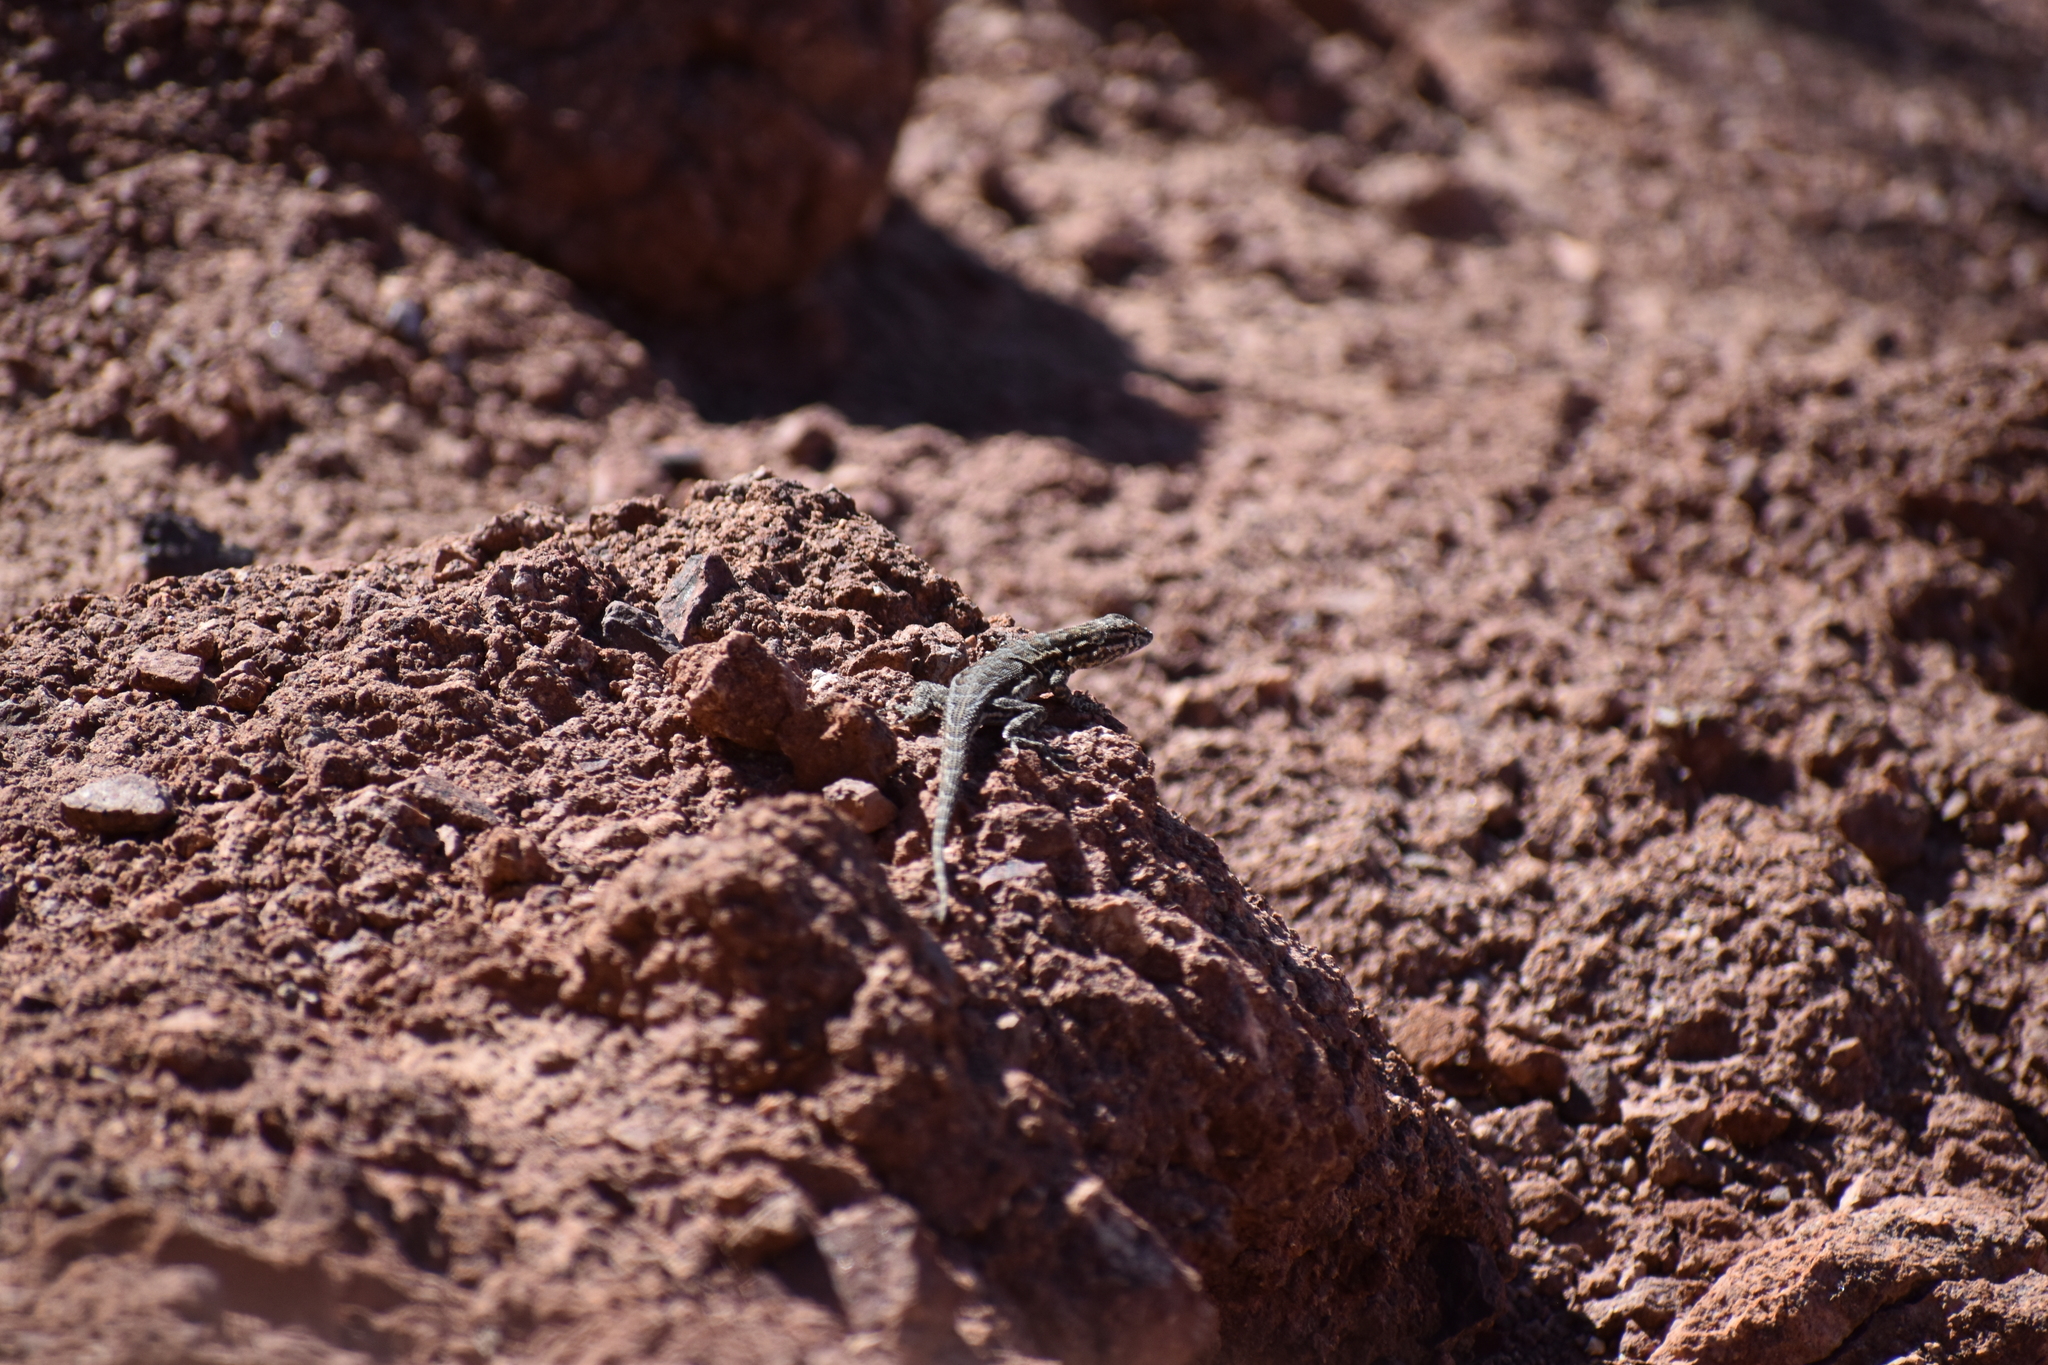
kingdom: Animalia
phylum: Chordata
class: Squamata
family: Phrynosomatidae
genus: Uta
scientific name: Uta stansburiana
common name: Side-blotched lizard
